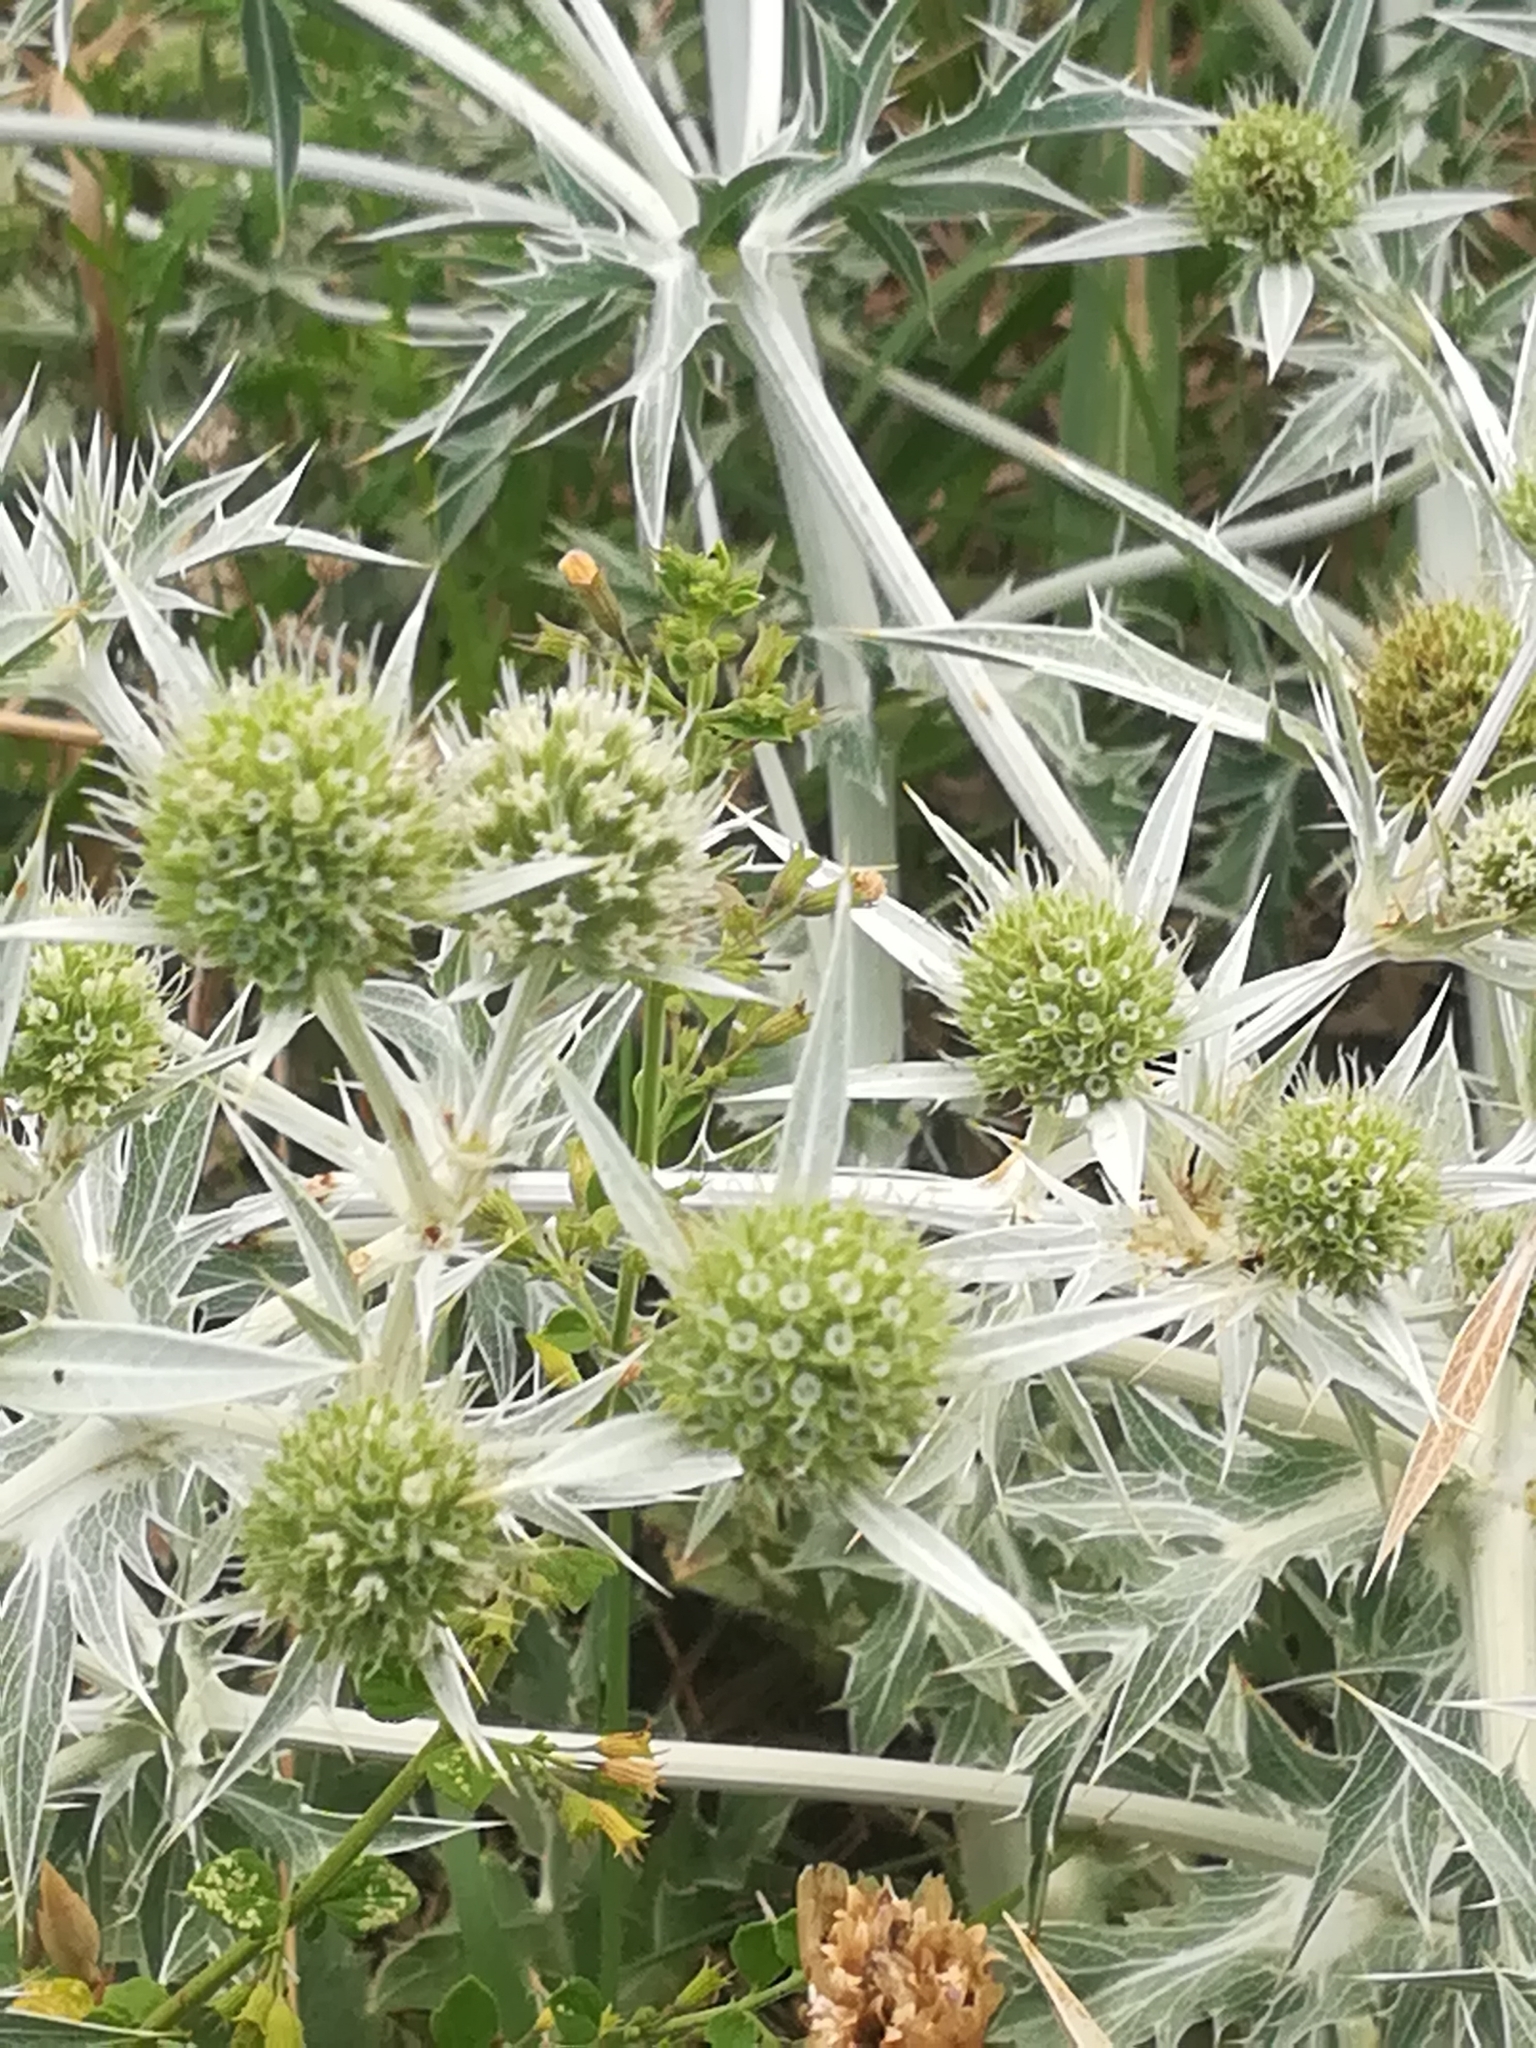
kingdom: Plantae
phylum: Tracheophyta
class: Magnoliopsida
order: Apiales
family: Apiaceae
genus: Eryngium
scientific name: Eryngium campestre
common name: Field eryngo
